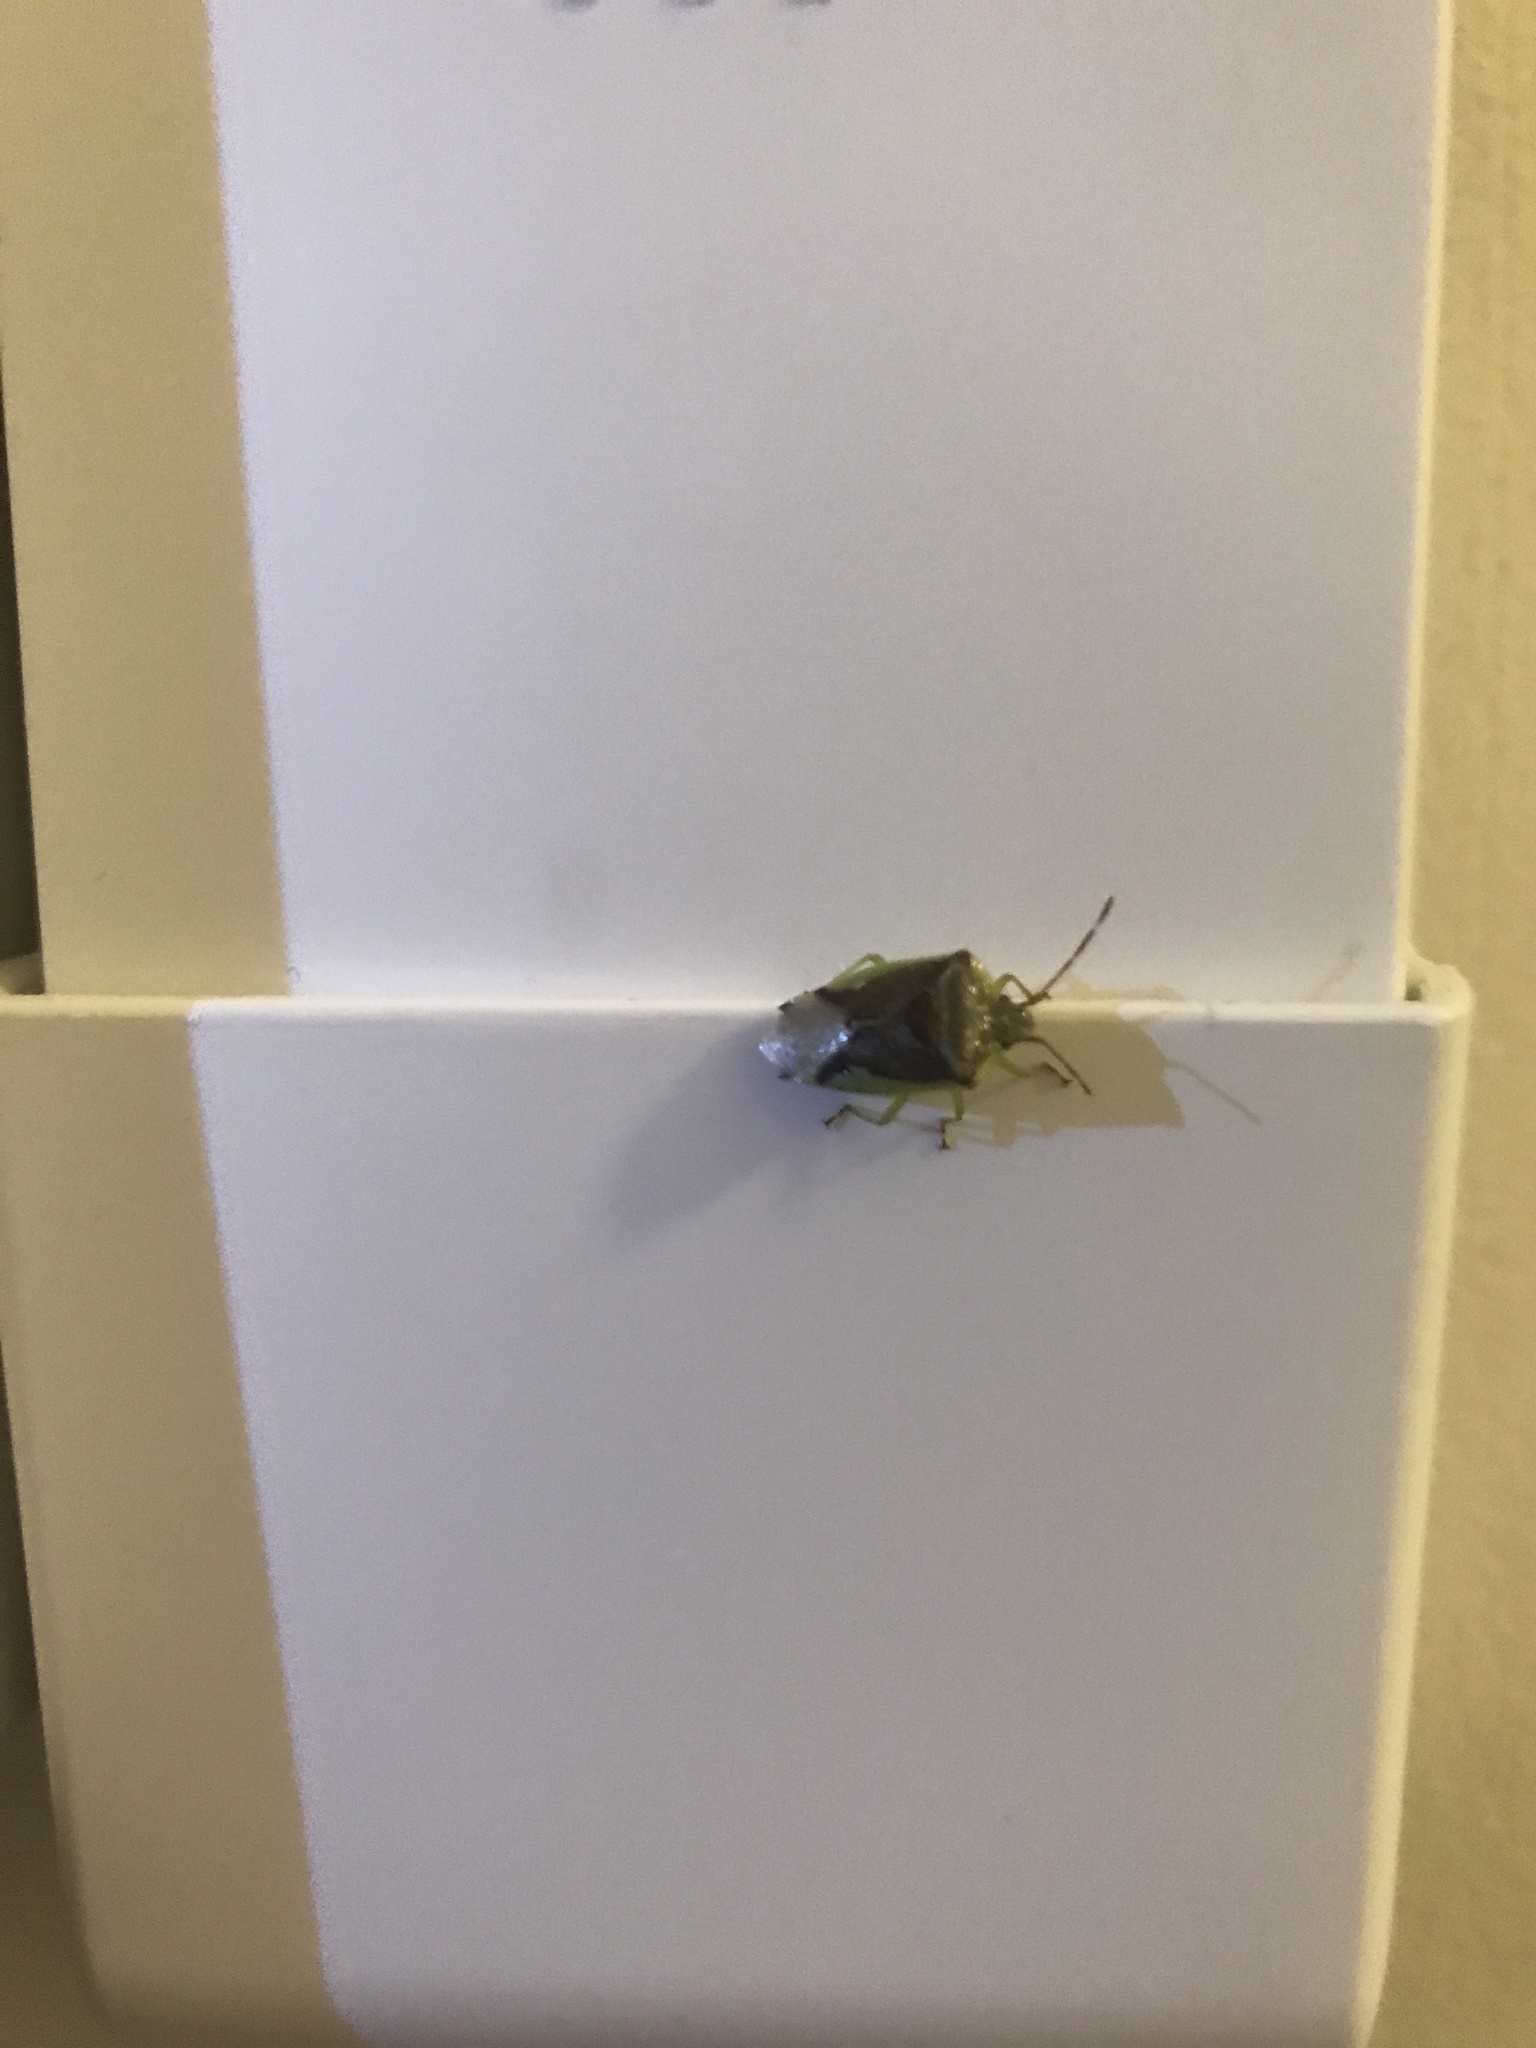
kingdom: Animalia
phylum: Arthropoda
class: Insecta
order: Hemiptera
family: Acanthosomatidae
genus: Oncacontias
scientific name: Oncacontias vittatus
